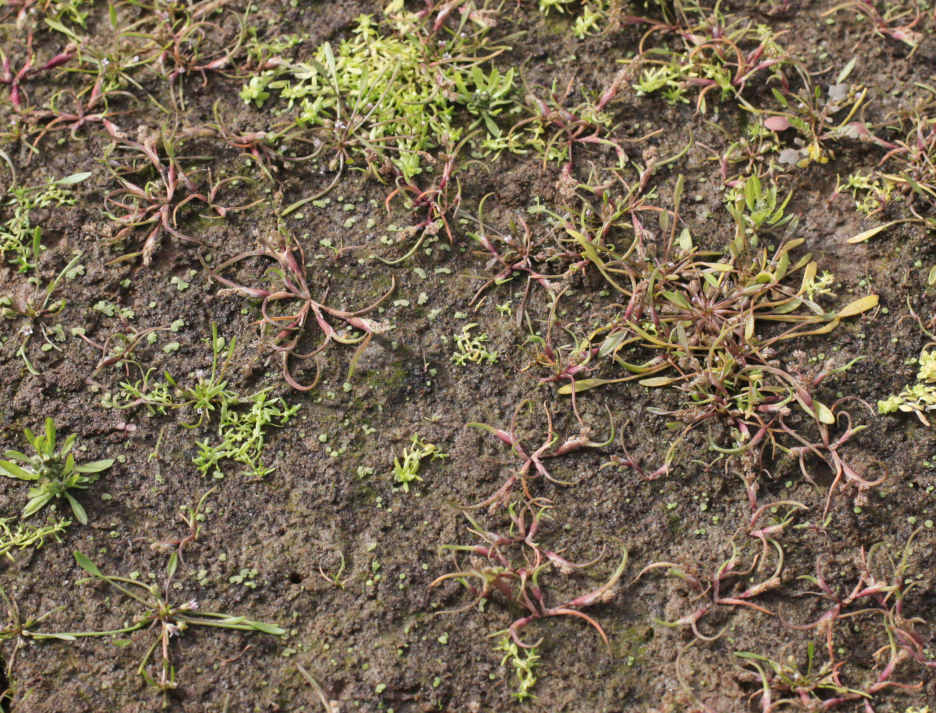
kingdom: Plantae
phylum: Tracheophyta
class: Liliopsida
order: Poales
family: Poaceae
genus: Coleanthus
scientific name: Coleanthus subtilis
